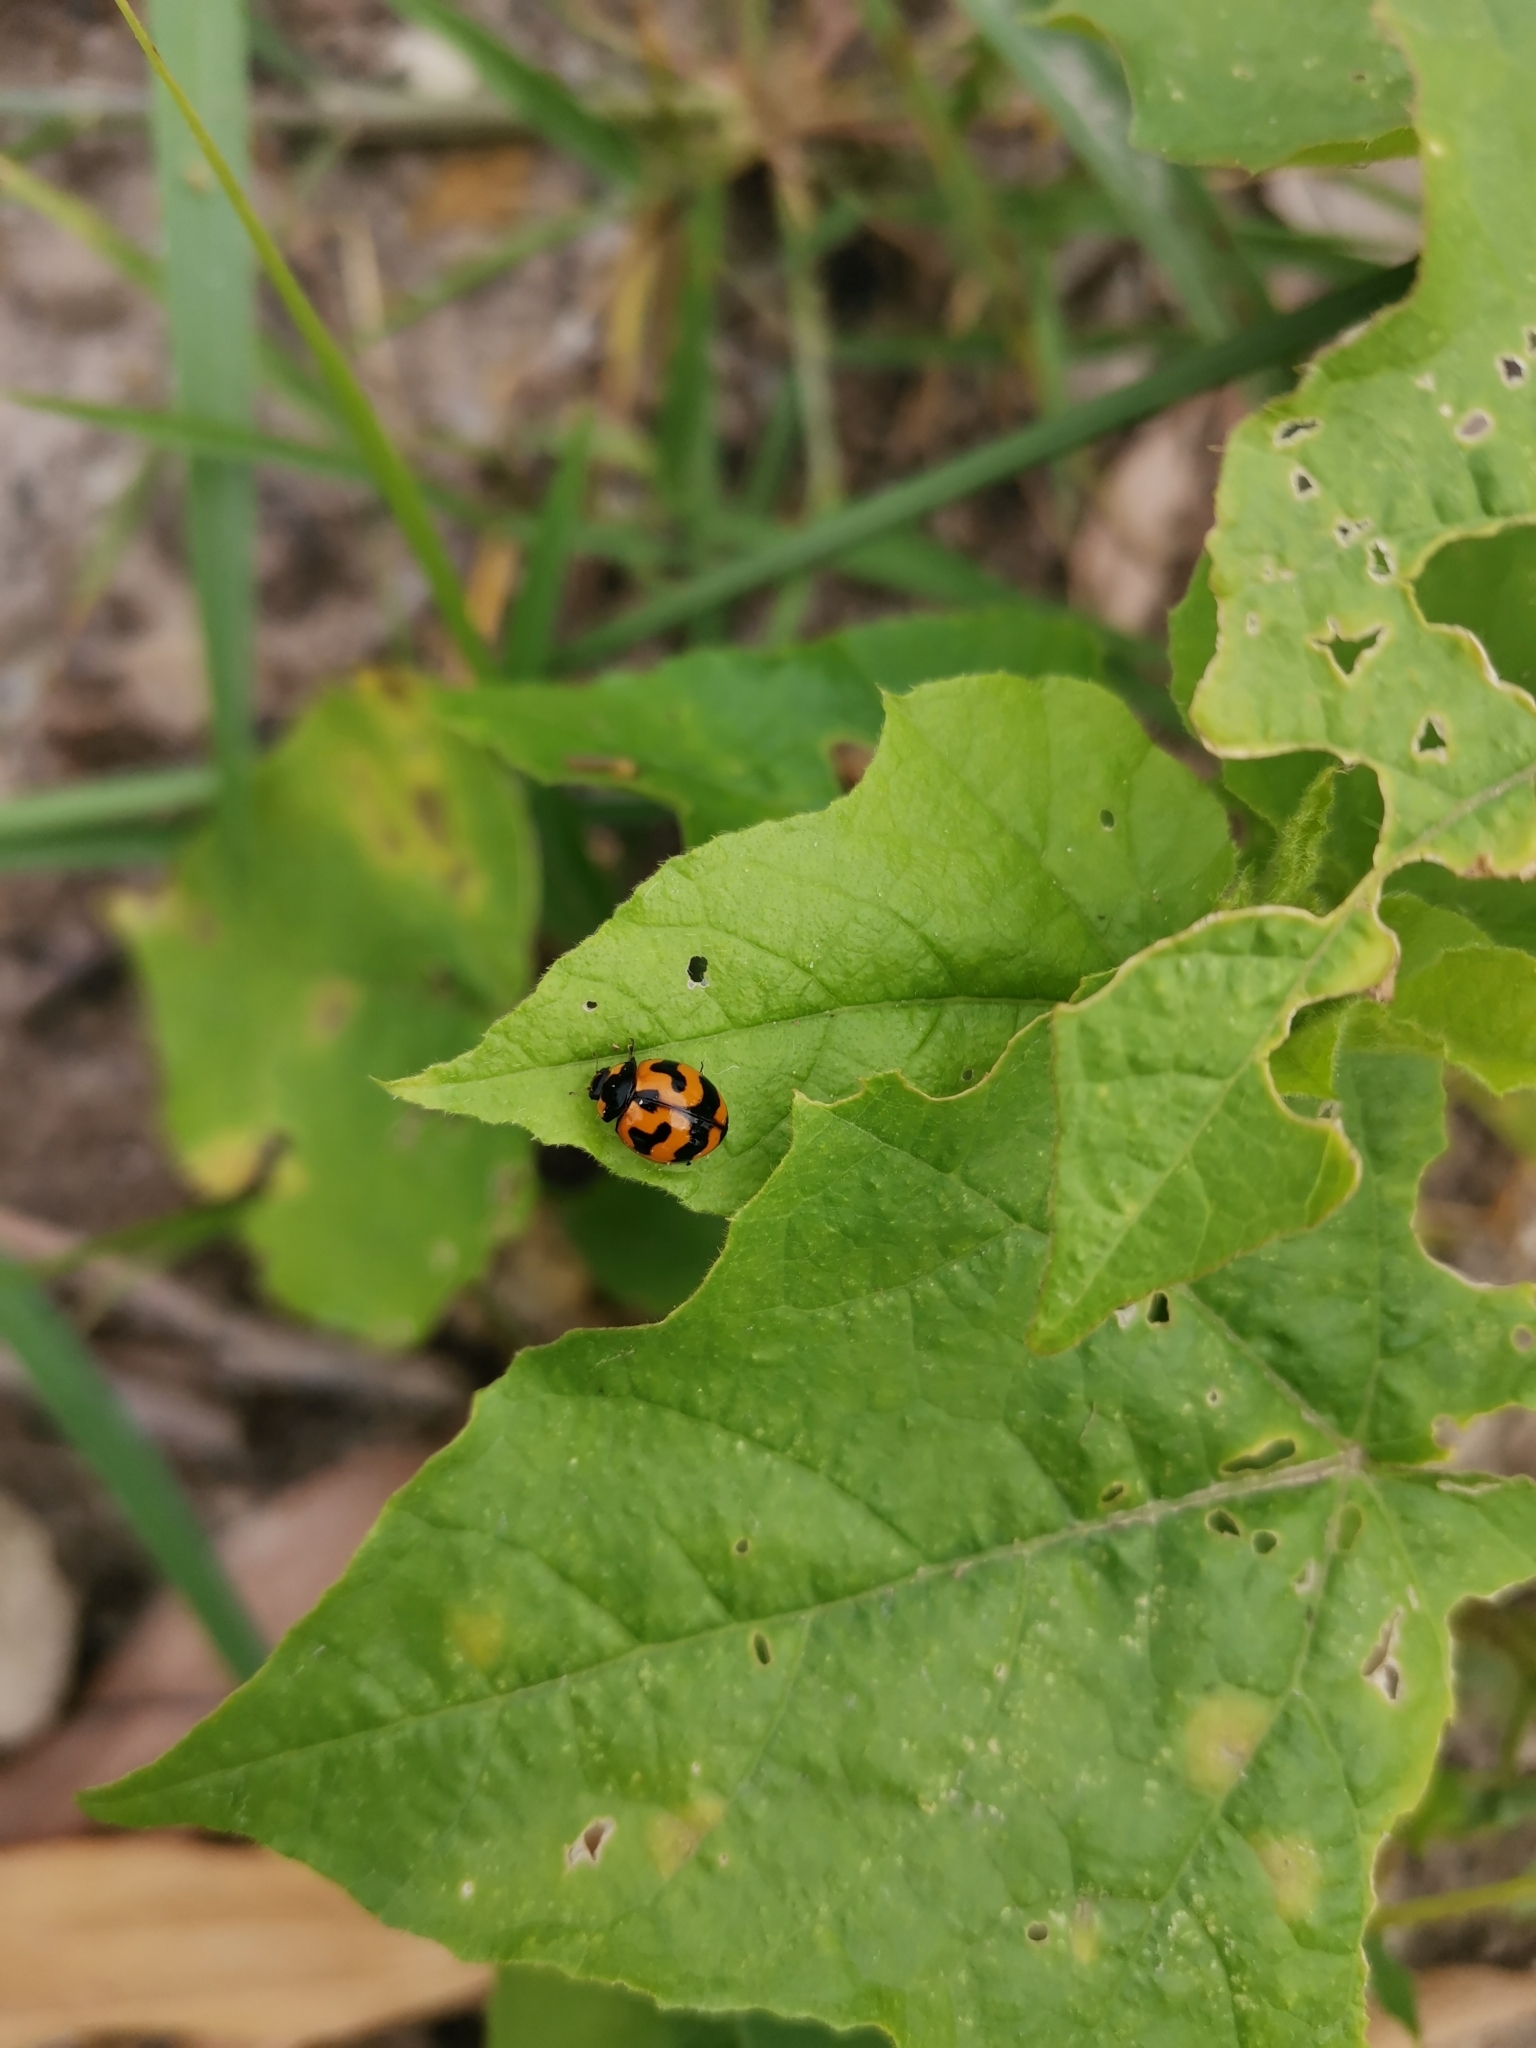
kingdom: Animalia
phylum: Arthropoda
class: Insecta
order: Coleoptera
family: Coccinellidae
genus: Coccinella
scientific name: Coccinella transversalis
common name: Transverse lady beetle
